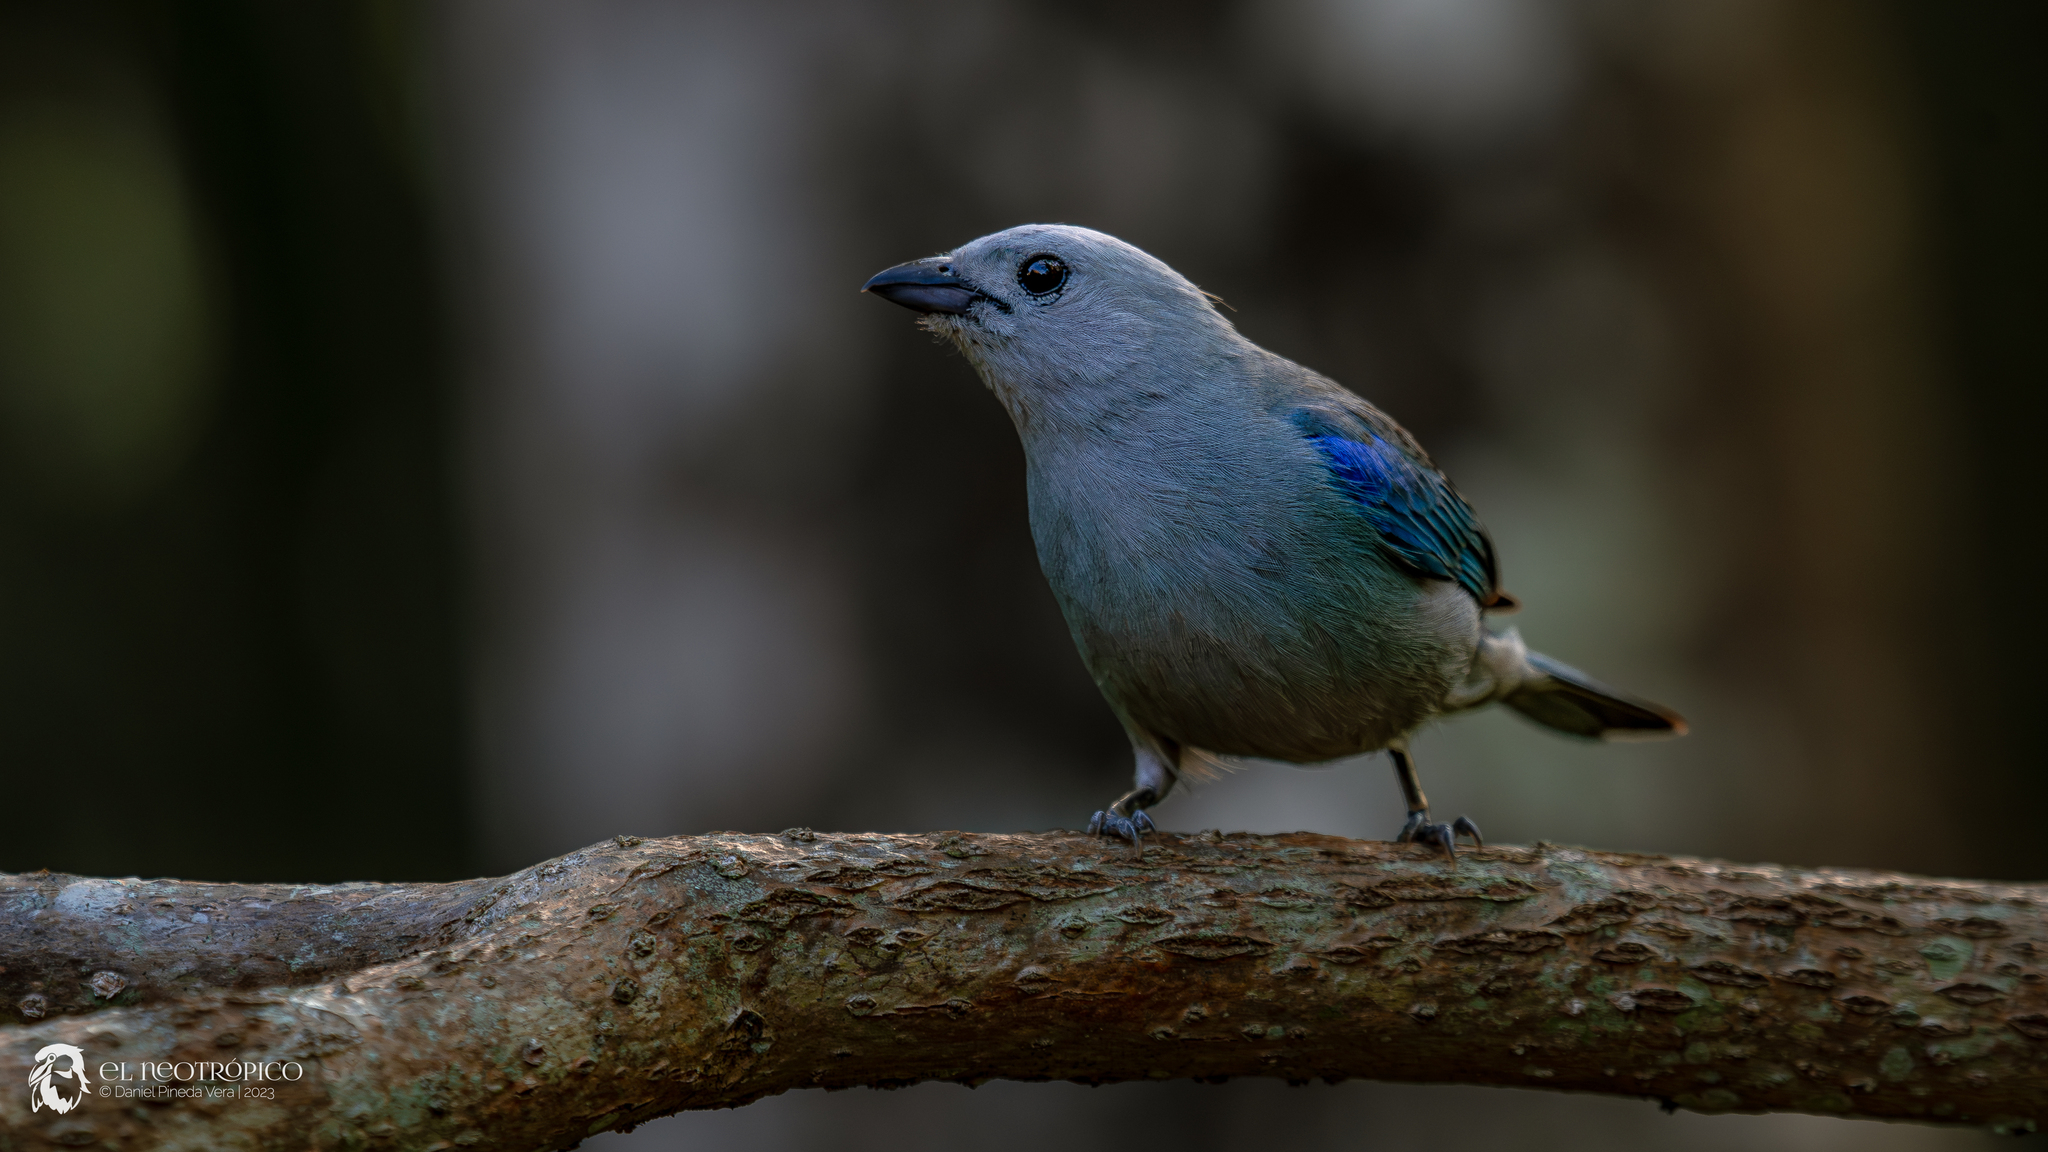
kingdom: Animalia
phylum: Chordata
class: Aves
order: Passeriformes
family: Thraupidae
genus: Thraupis
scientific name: Thraupis episcopus
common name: Blue-grey tanager
